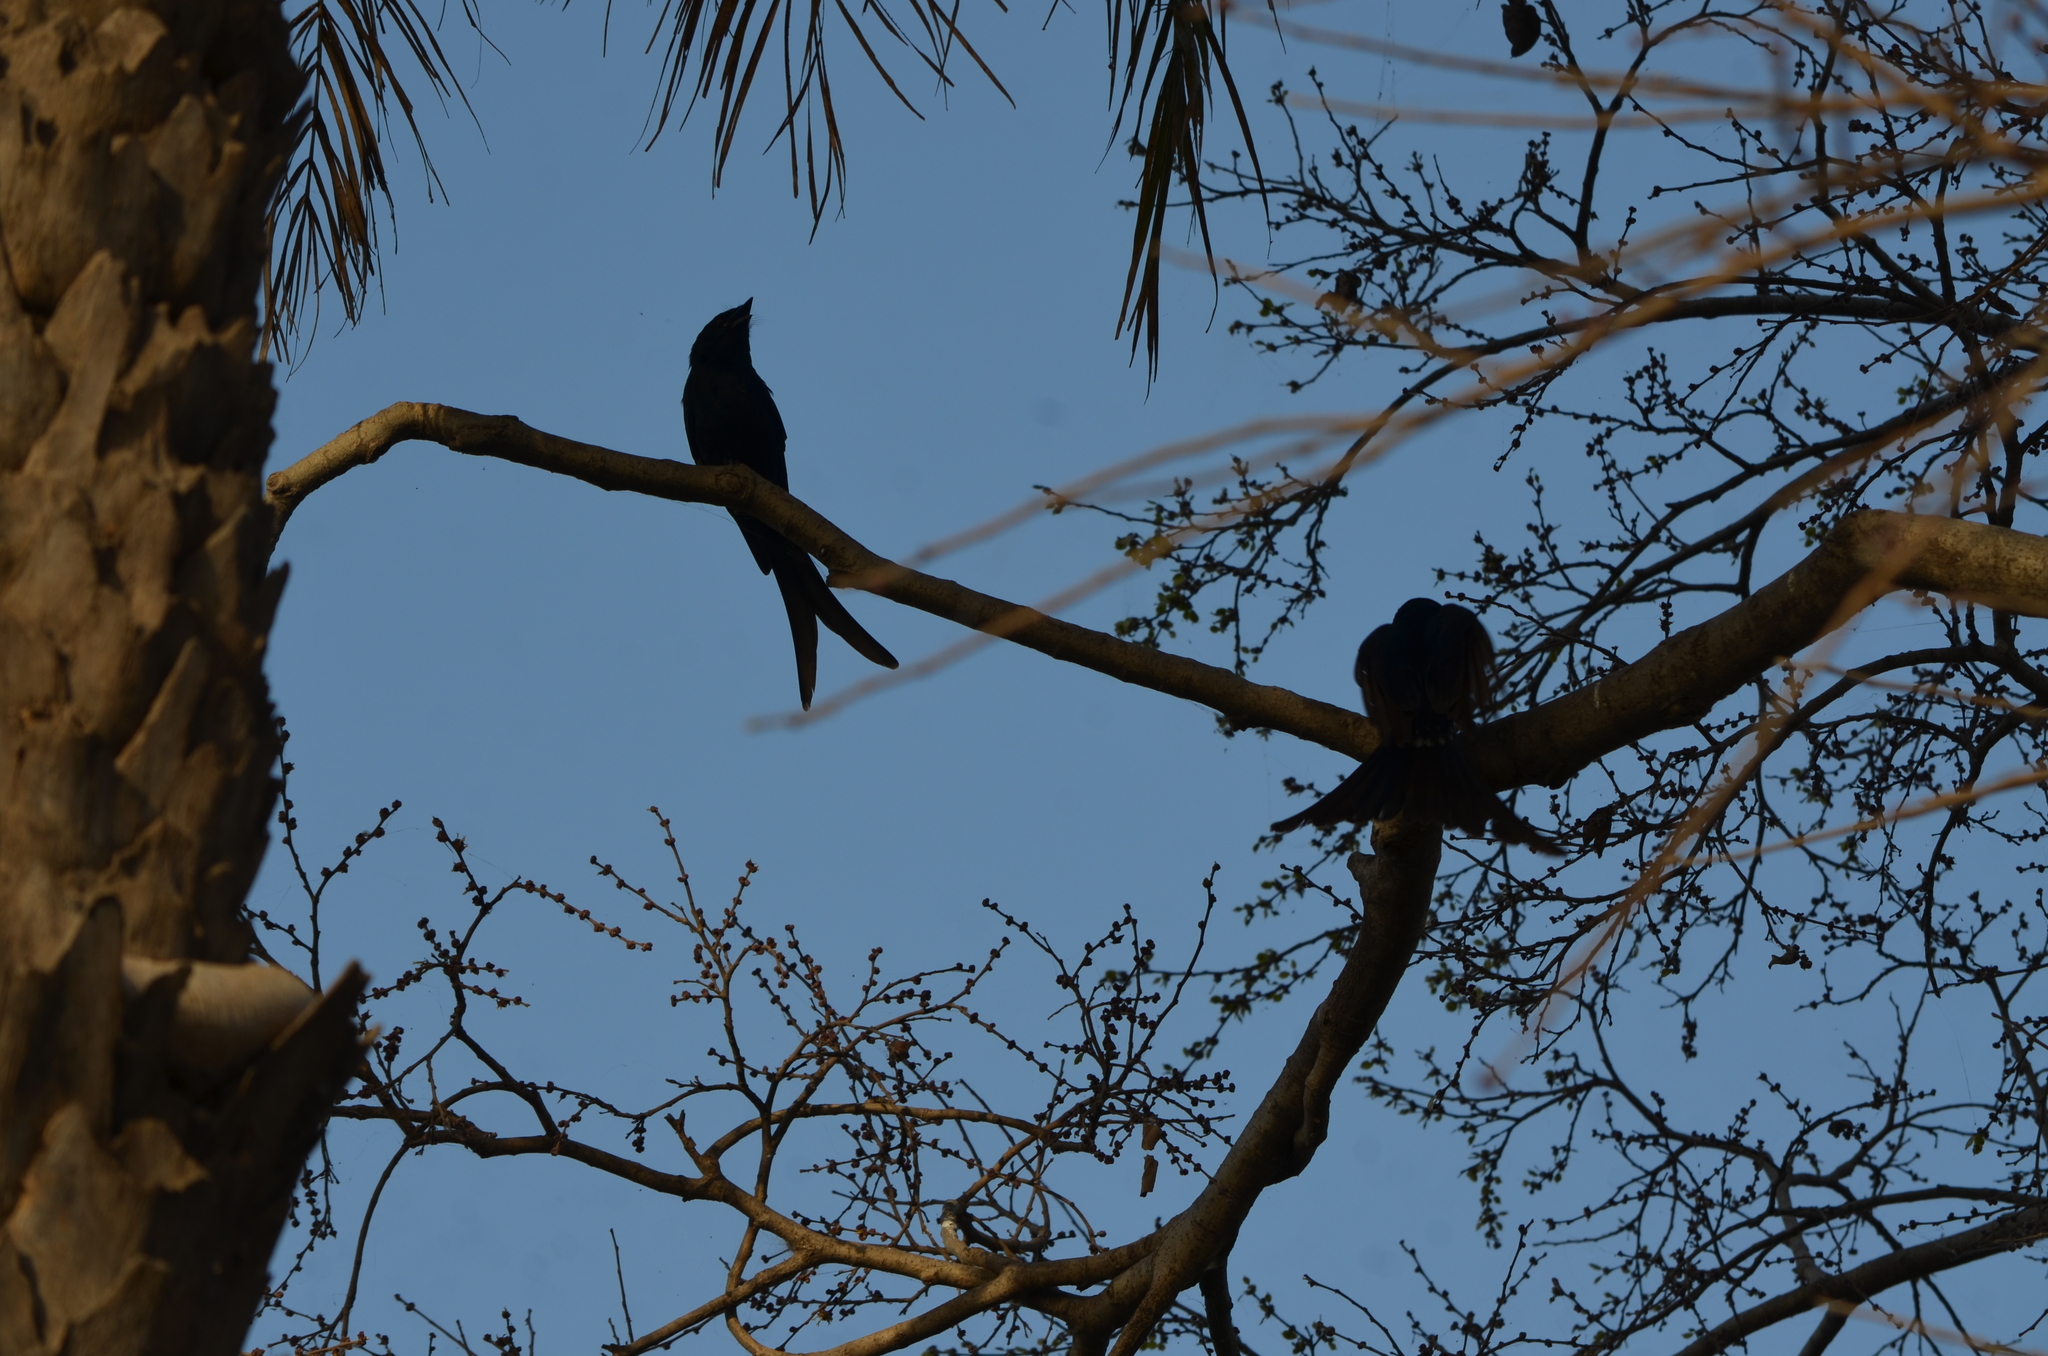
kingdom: Animalia
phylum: Chordata
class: Aves
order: Passeriformes
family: Dicruridae
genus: Dicrurus
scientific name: Dicrurus macrocercus
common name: Black drongo
